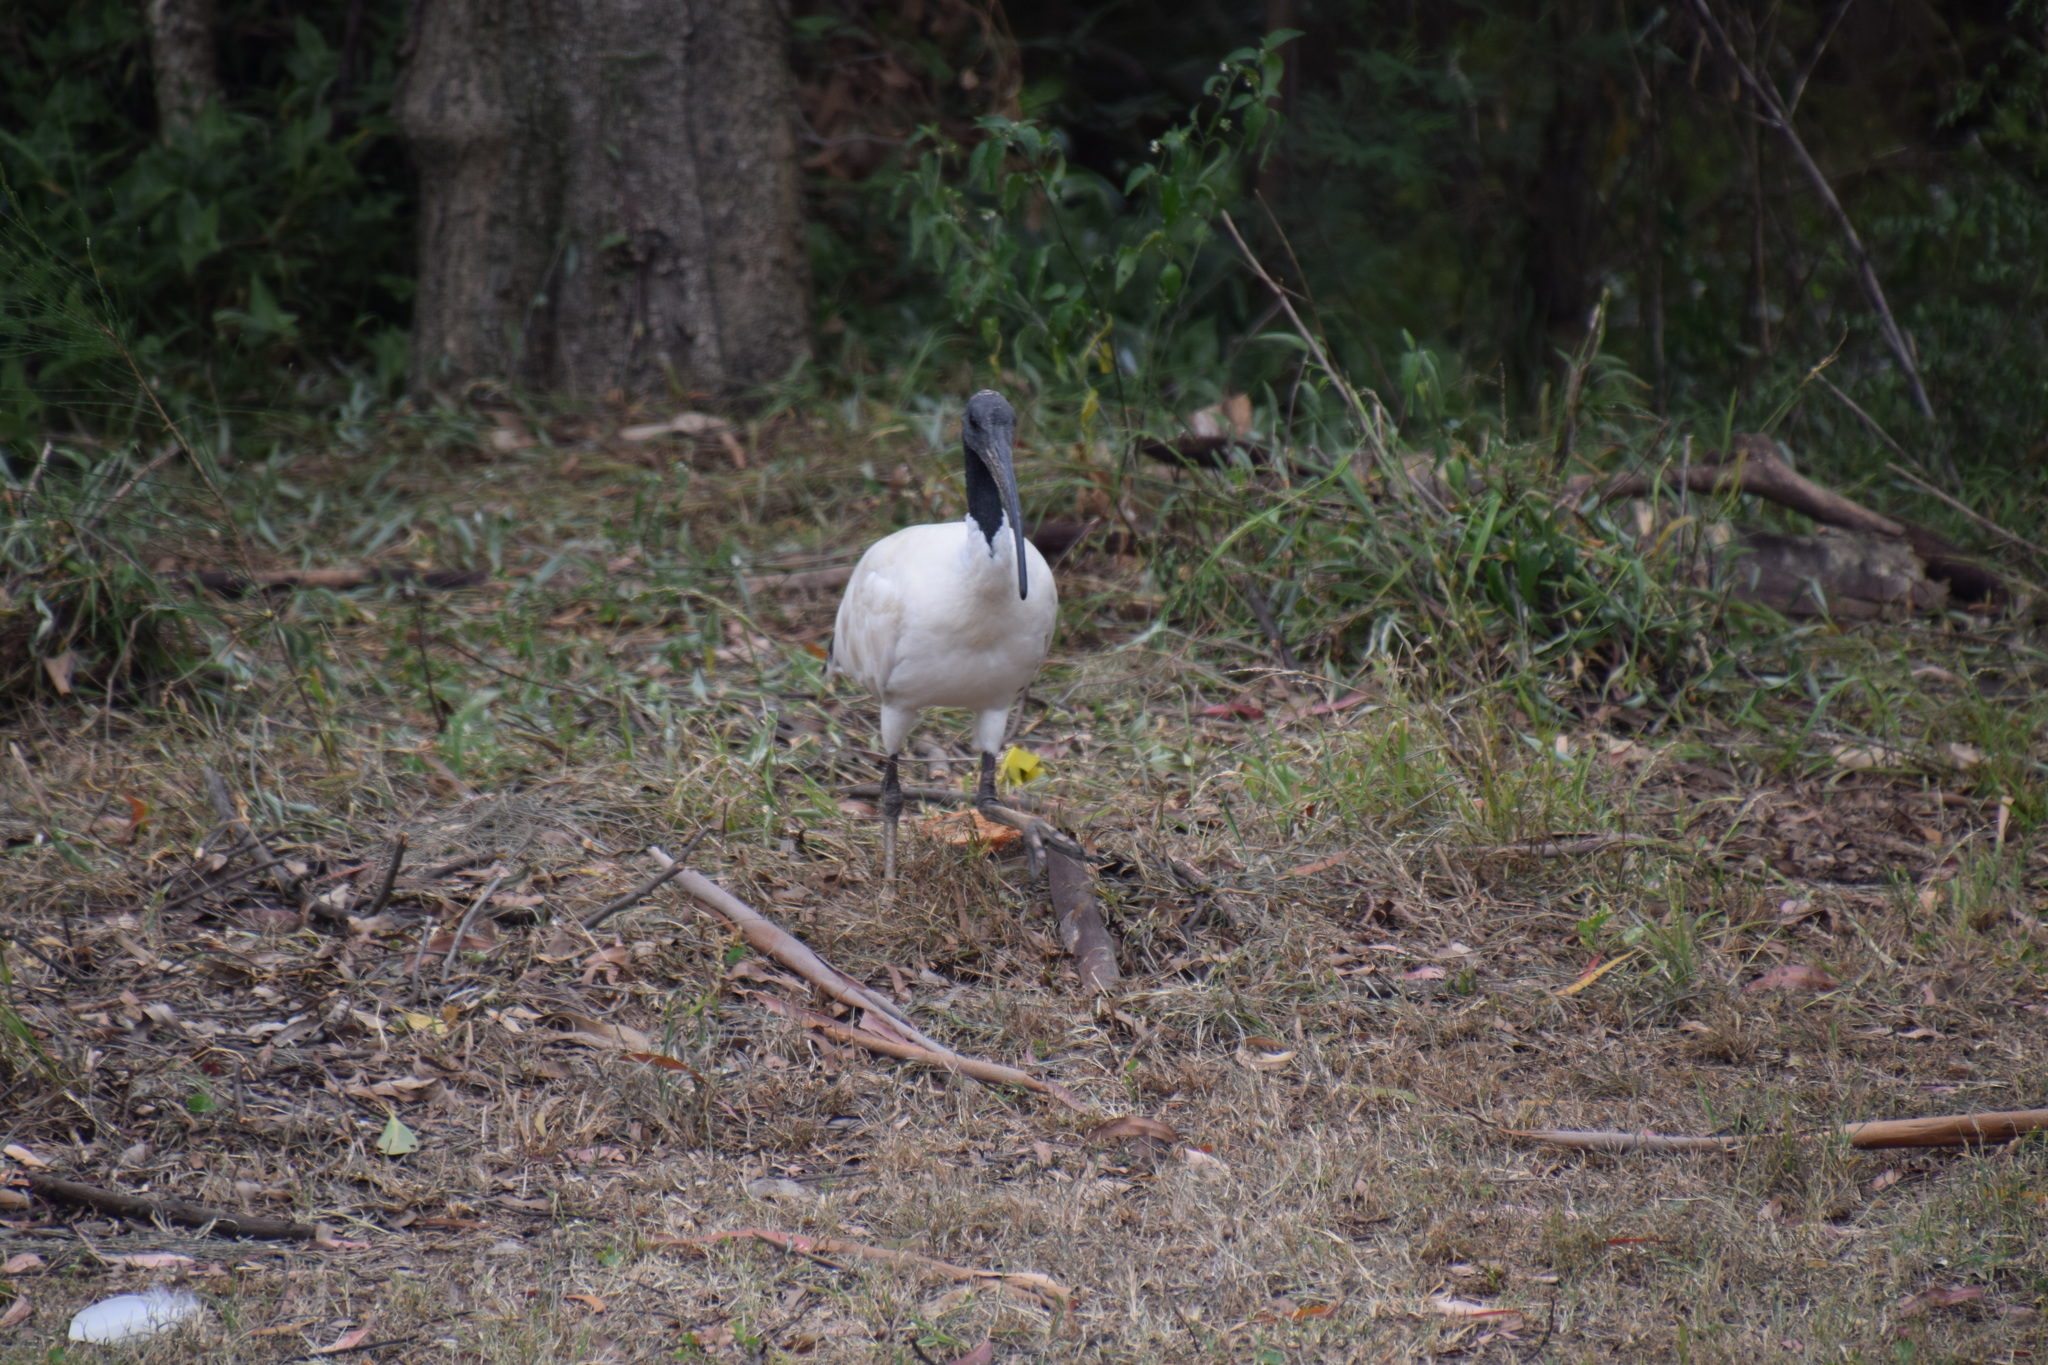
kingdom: Animalia
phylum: Chordata
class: Aves
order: Pelecaniformes
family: Threskiornithidae
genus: Threskiornis
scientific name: Threskiornis molucca
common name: Australian white ibis
